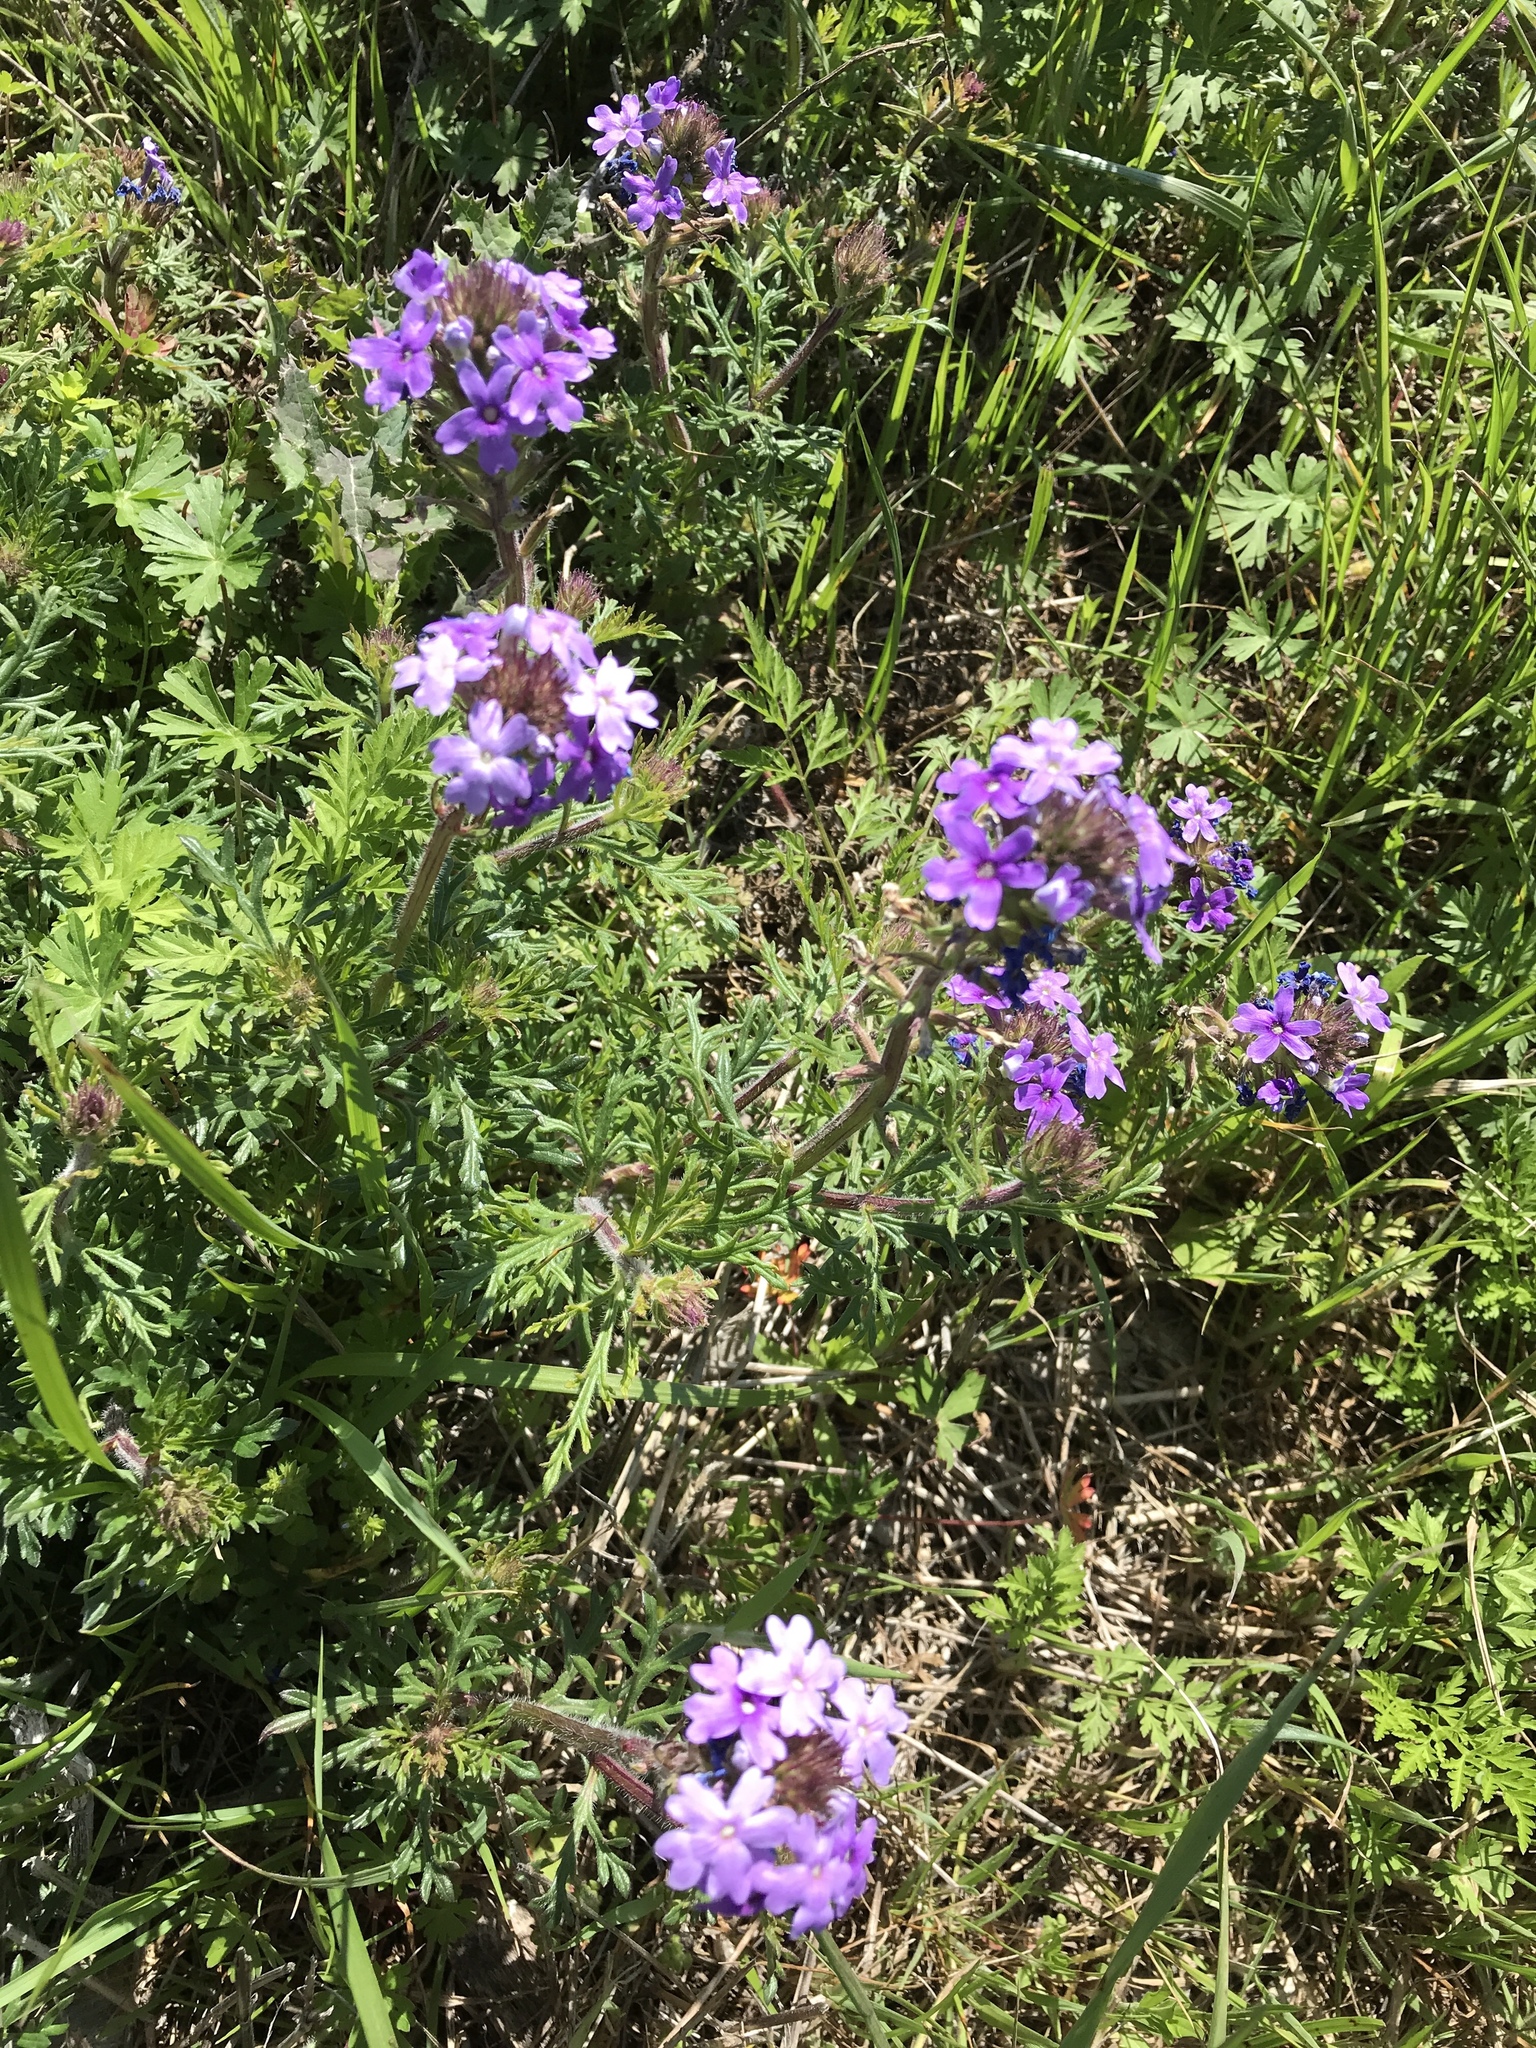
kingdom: Plantae
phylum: Tracheophyta
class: Magnoliopsida
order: Lamiales
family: Verbenaceae
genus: Verbena
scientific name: Verbena bipinnatifida
